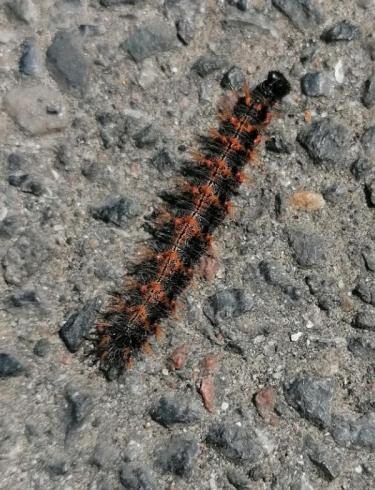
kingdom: Animalia
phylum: Arthropoda
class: Insecta
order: Lepidoptera
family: Nymphalidae
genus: Nymphalis
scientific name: Nymphalis polychloros
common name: Large tortoiseshell
